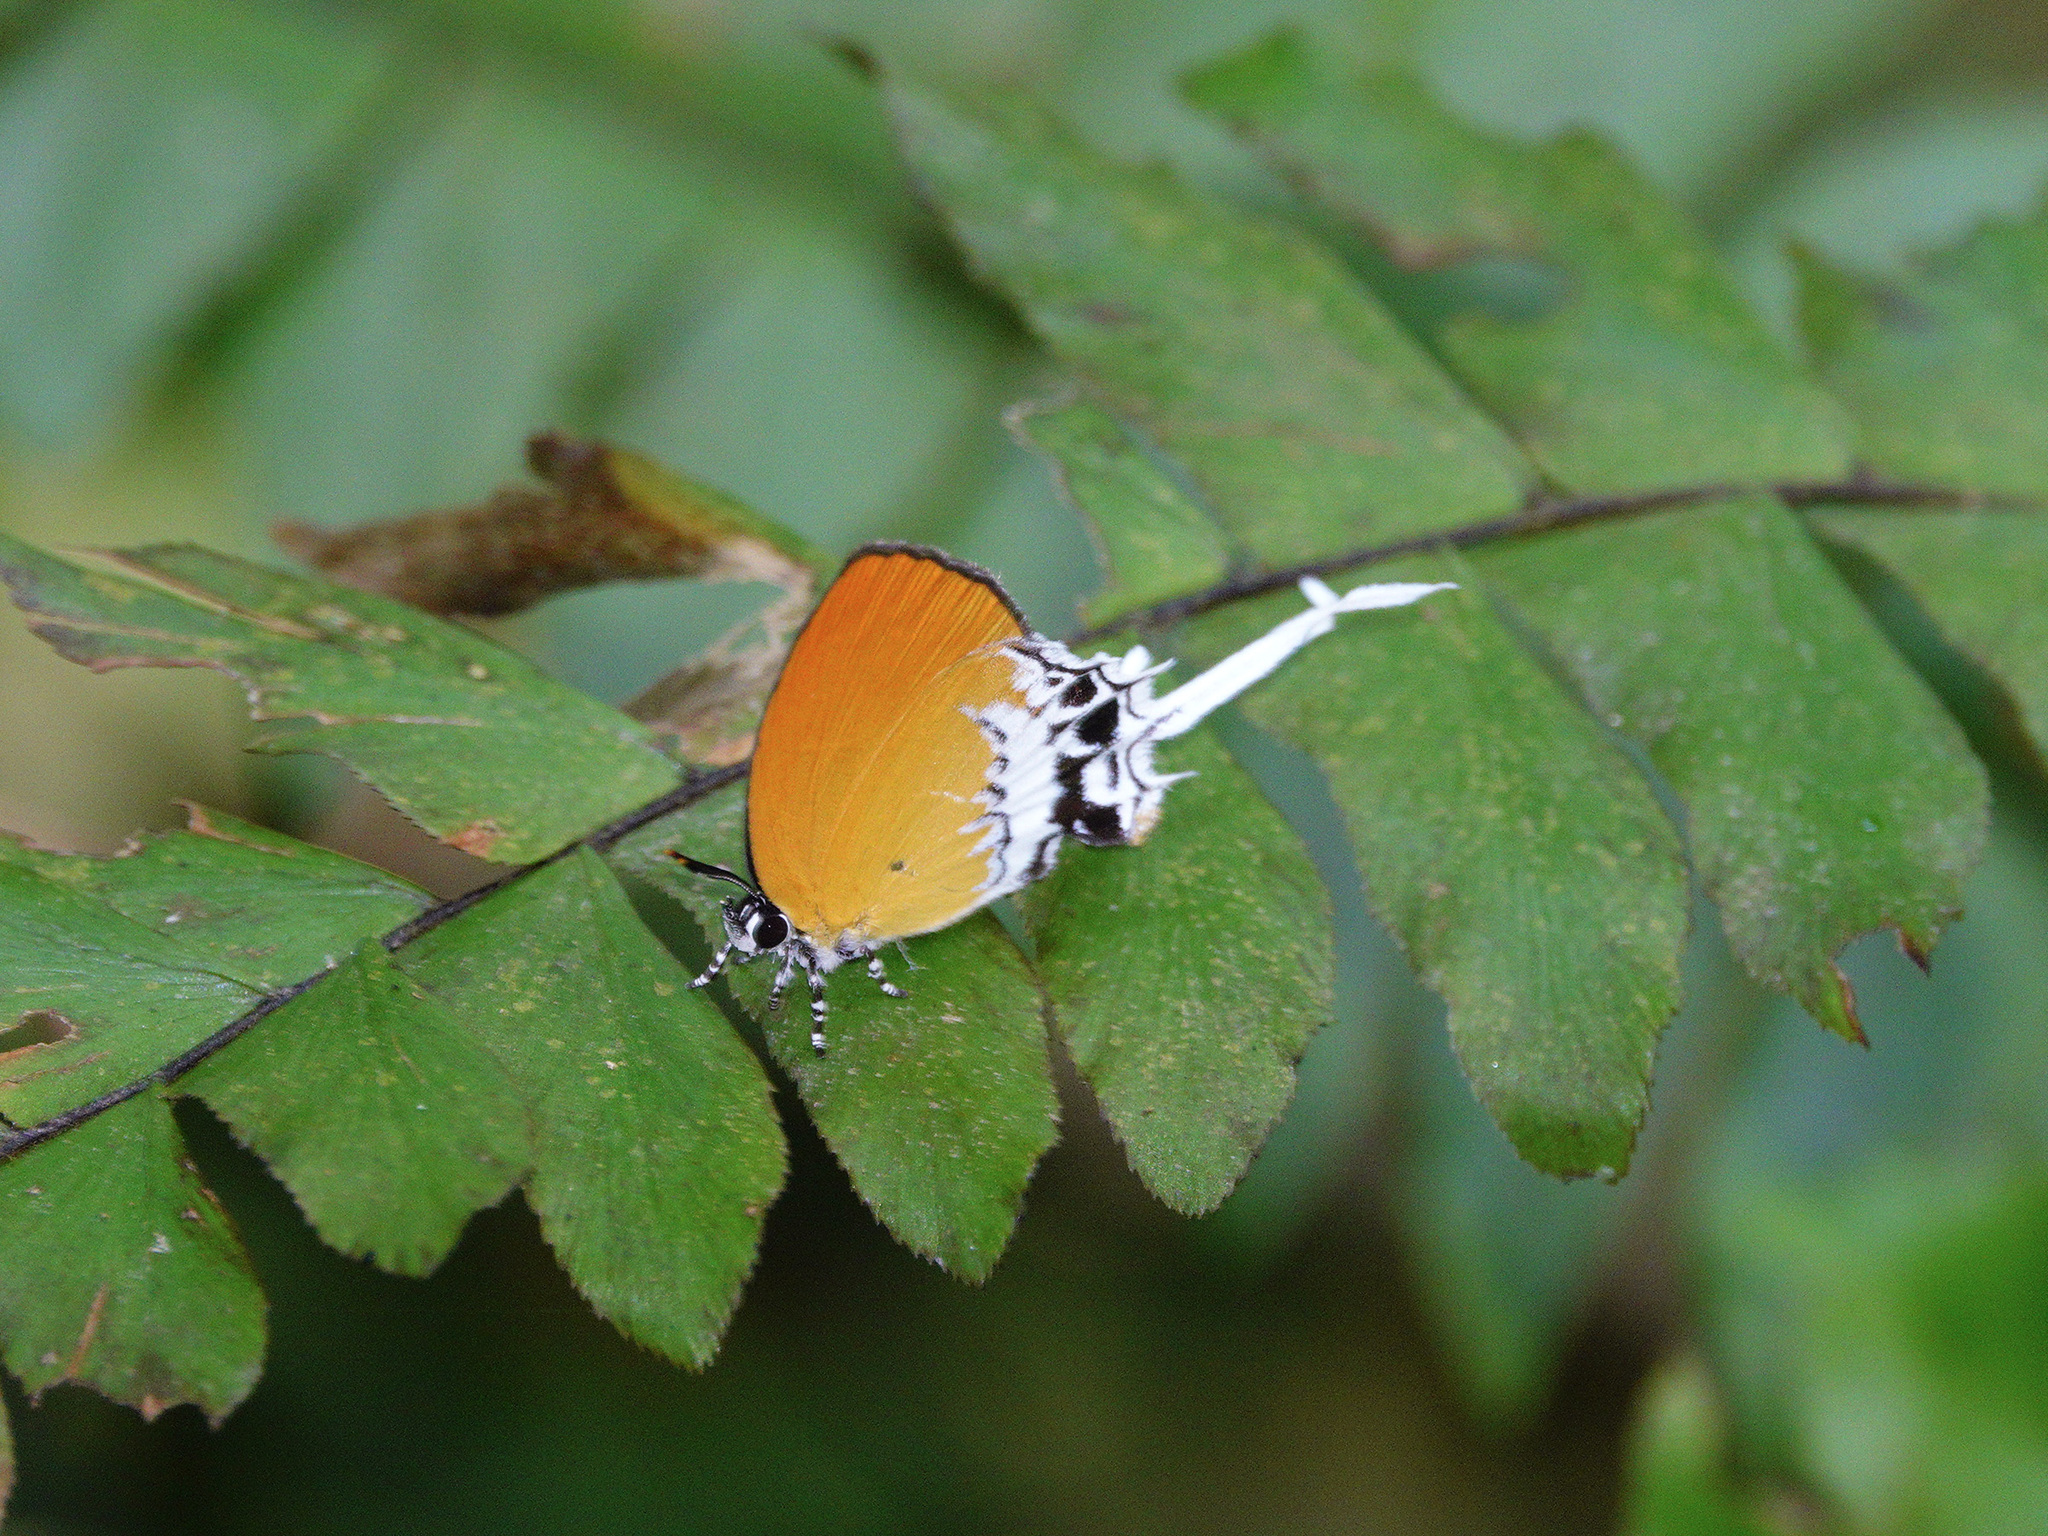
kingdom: Animalia
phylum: Arthropoda
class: Insecta
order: Lepidoptera
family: Lycaenidae
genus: Eooxylides
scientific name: Eooxylides tharis
